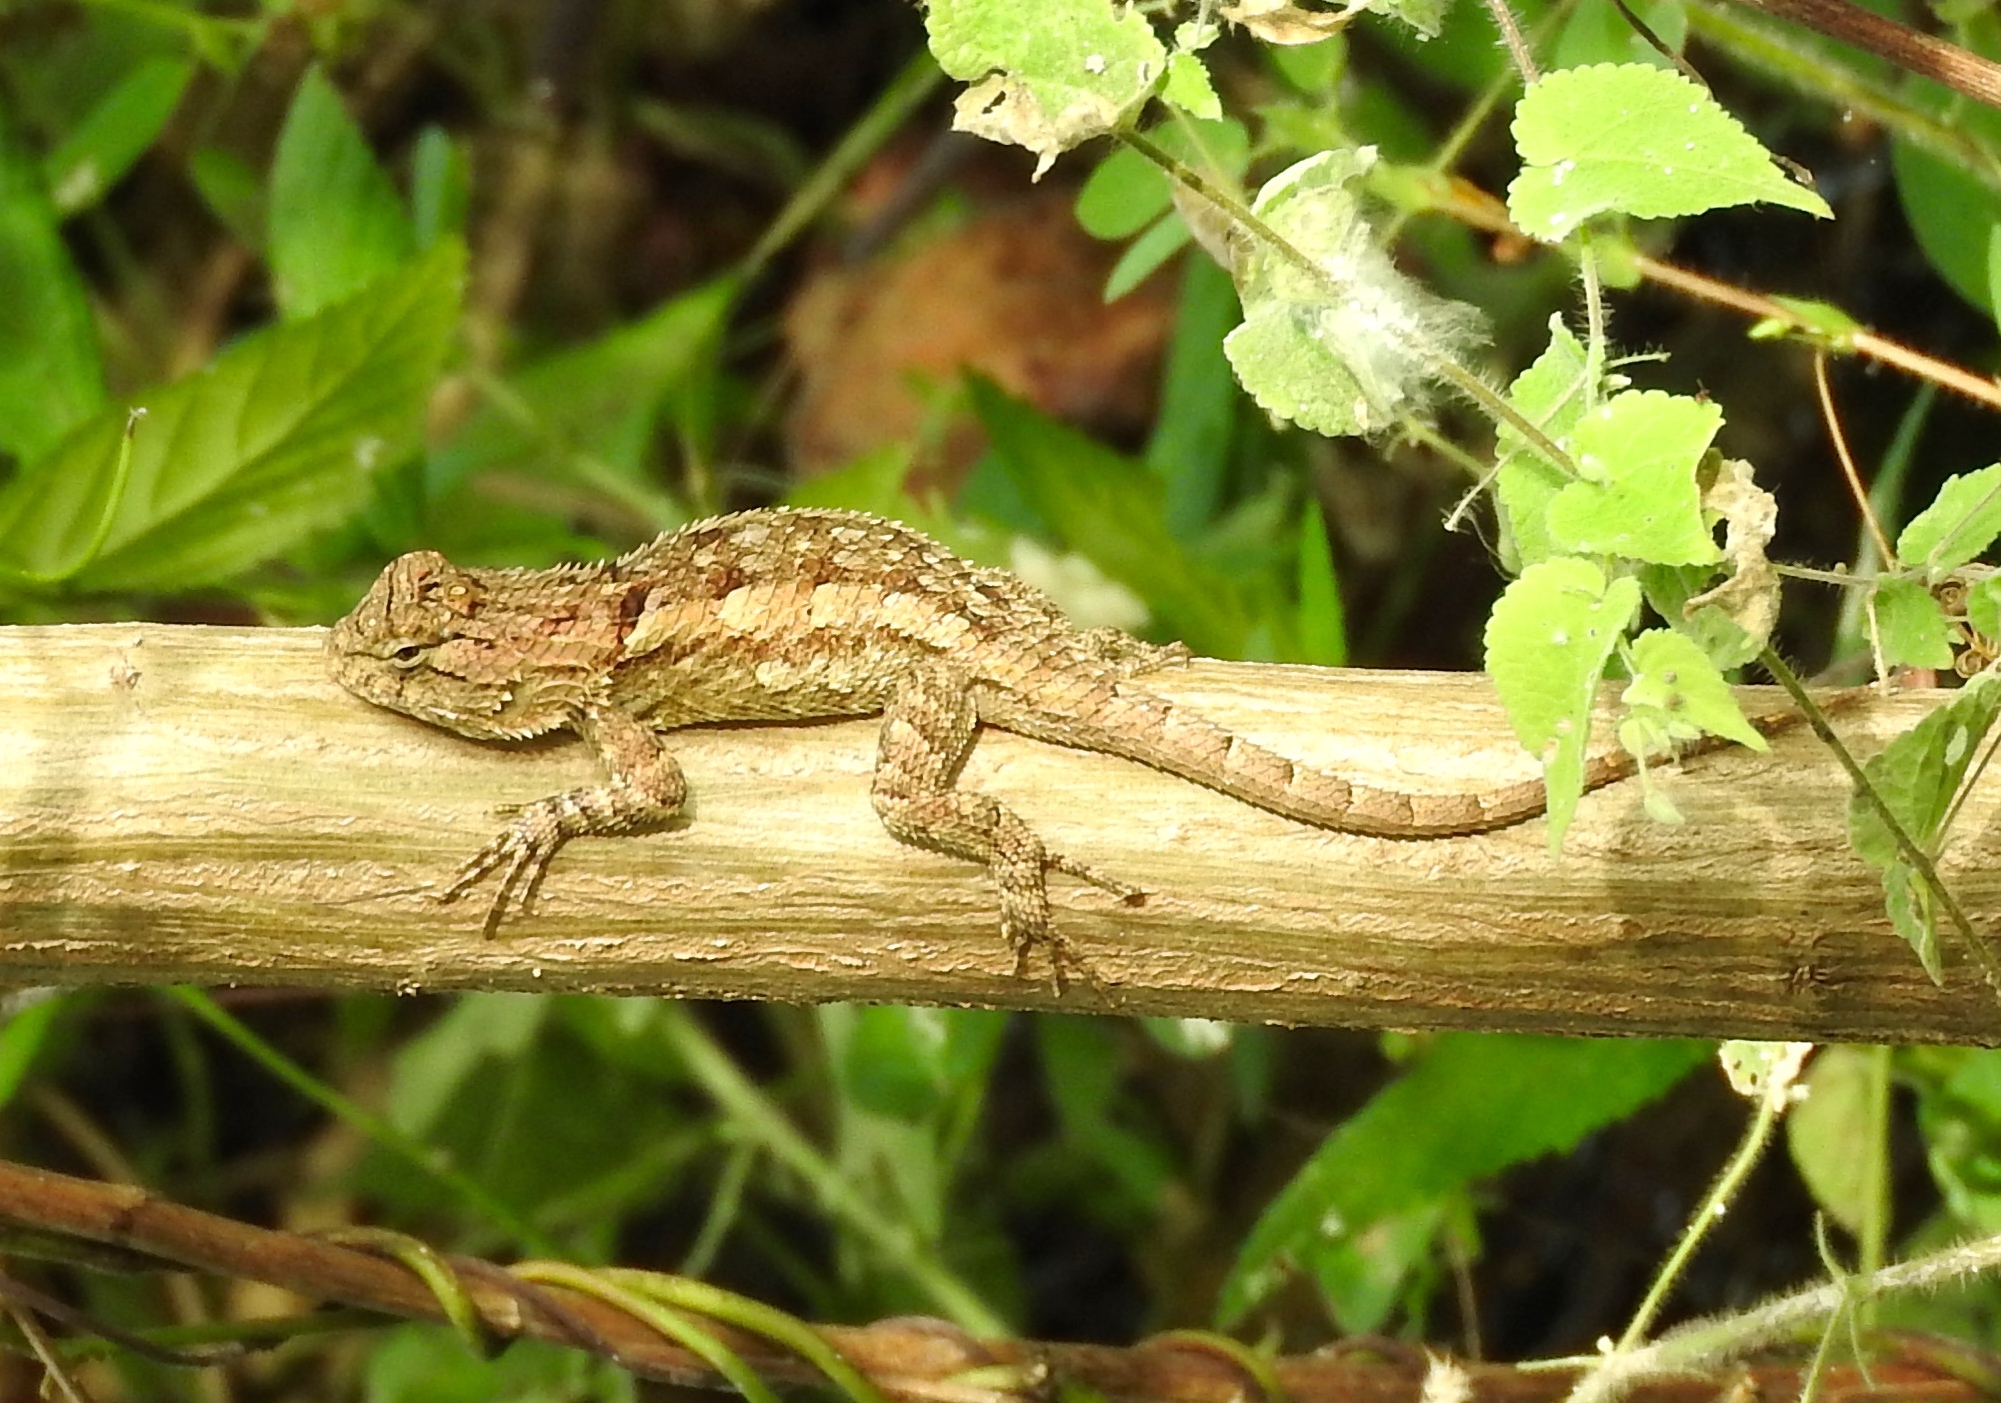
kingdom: Animalia
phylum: Chordata
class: Squamata
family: Phrynosomatidae
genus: Sceloporus
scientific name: Sceloporus nelsoni
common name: Nelson's spiny lizard
